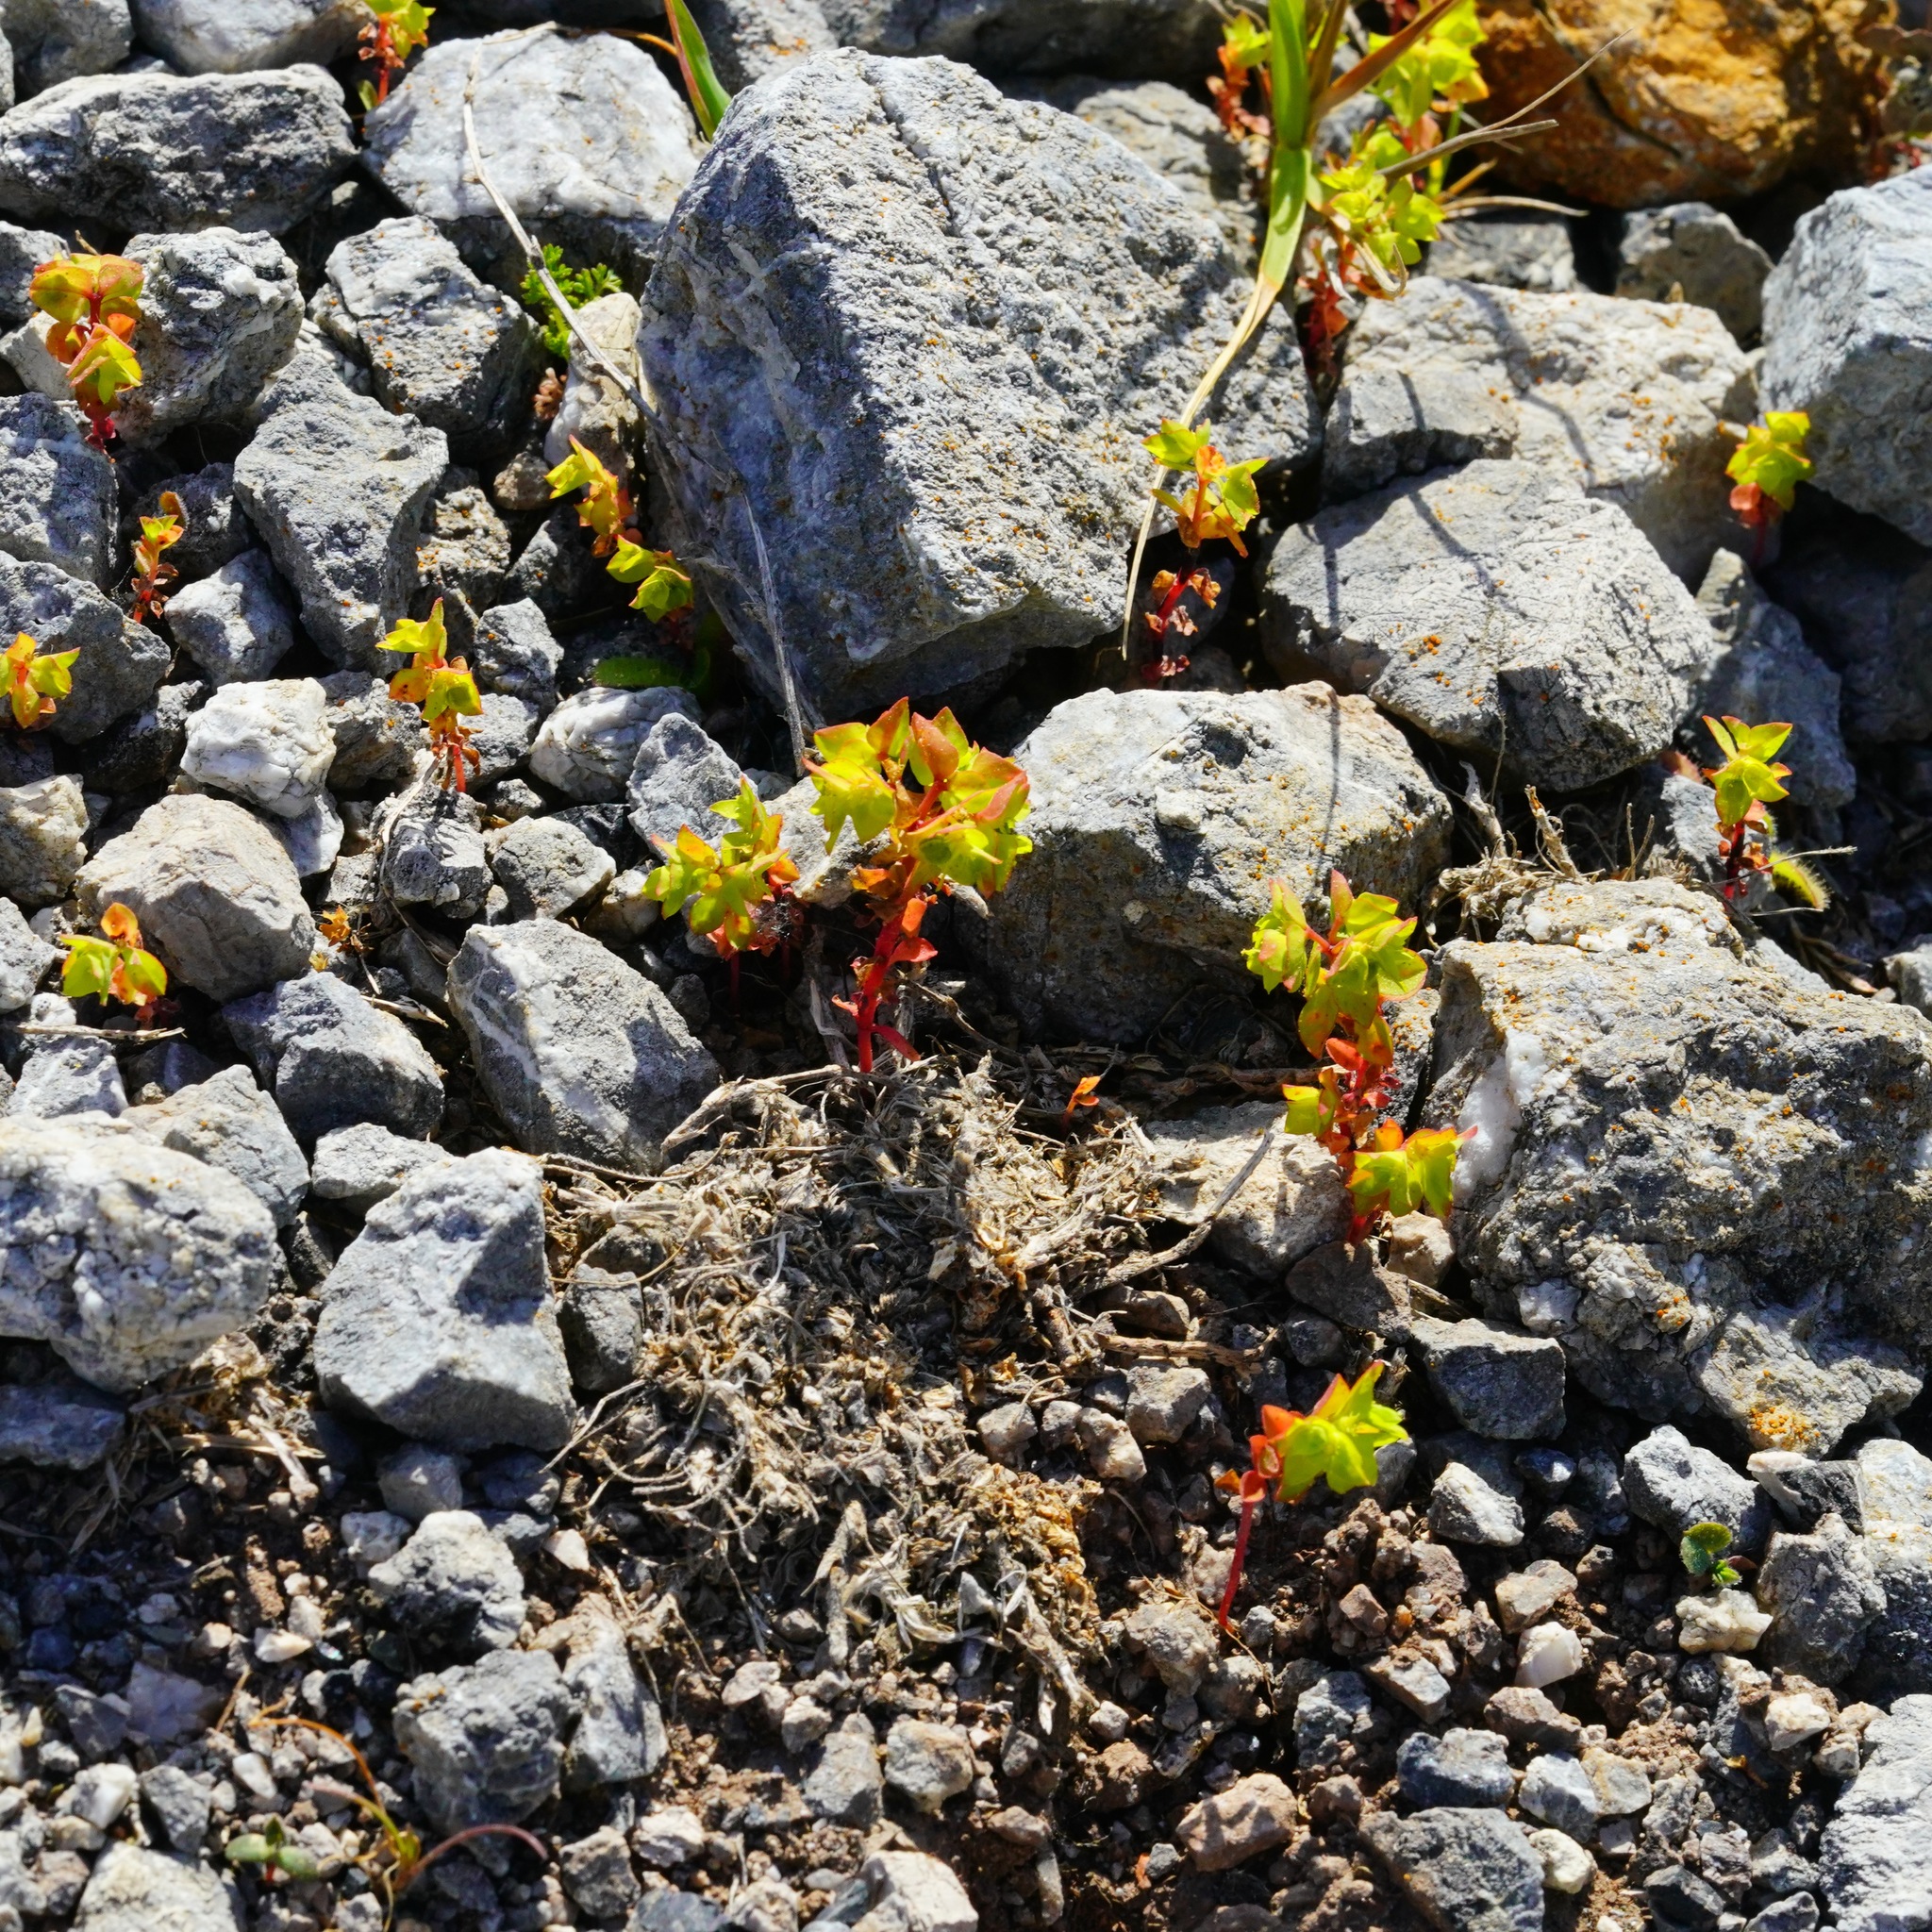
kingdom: Plantae
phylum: Tracheophyta
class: Magnoliopsida
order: Malpighiales
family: Euphorbiaceae
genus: Euphorbia
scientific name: Euphorbia peplus
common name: Petty spurge
